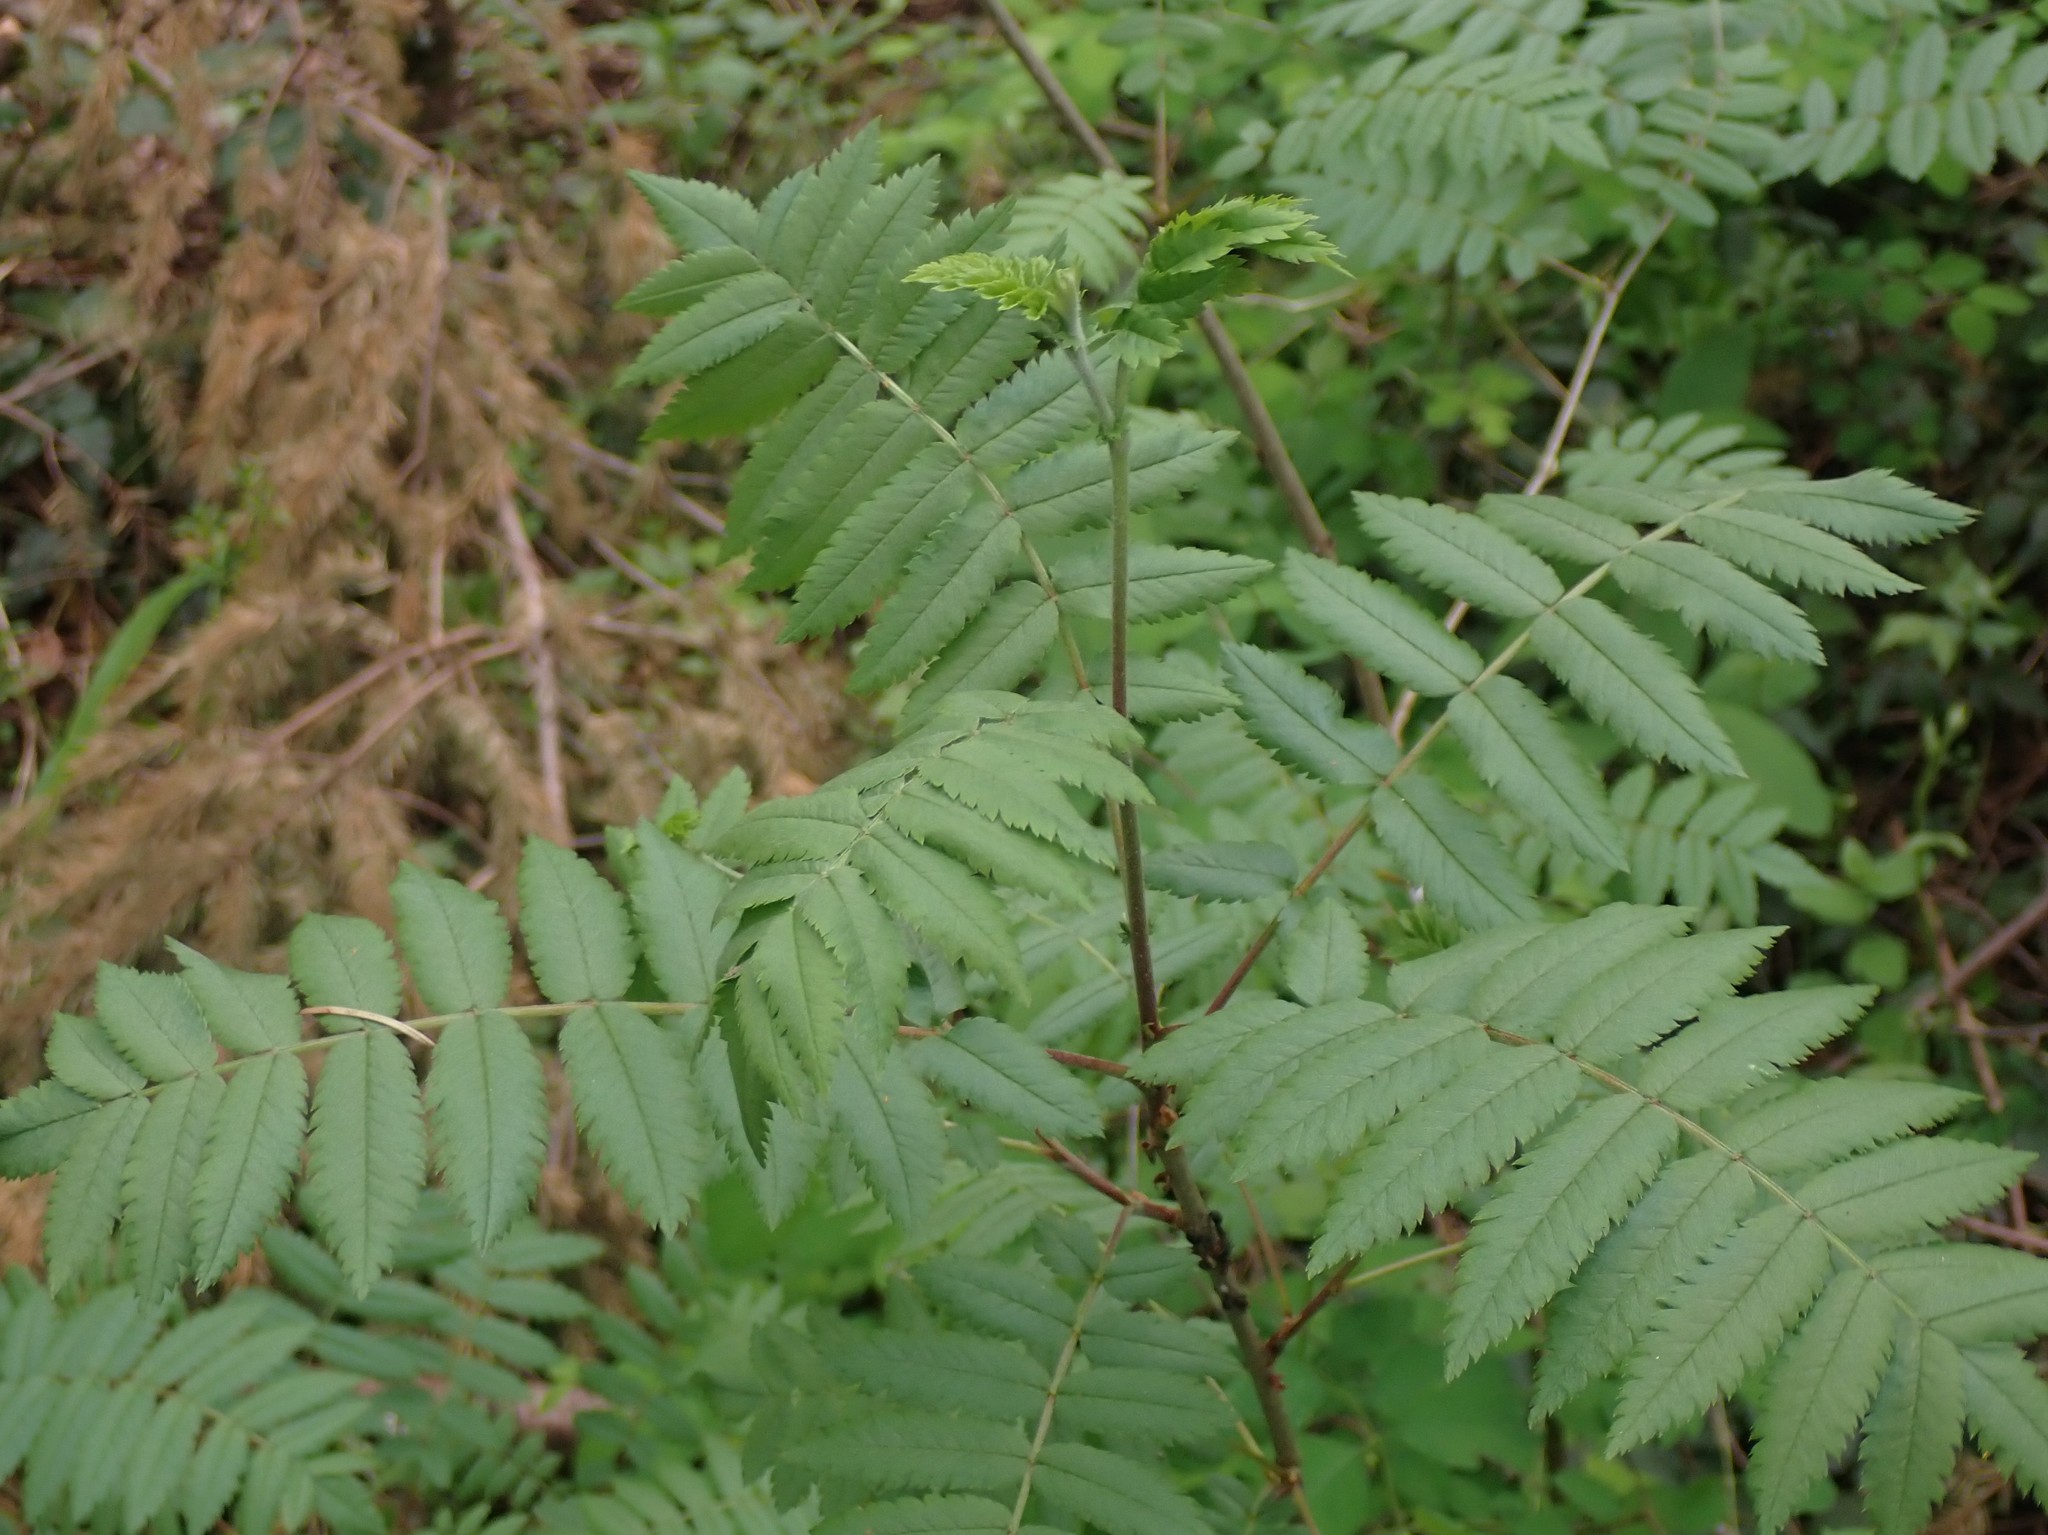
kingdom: Plantae
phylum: Tracheophyta
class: Magnoliopsida
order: Rosales
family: Rosaceae
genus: Sorbus
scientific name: Sorbus aucuparia
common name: Rowan
